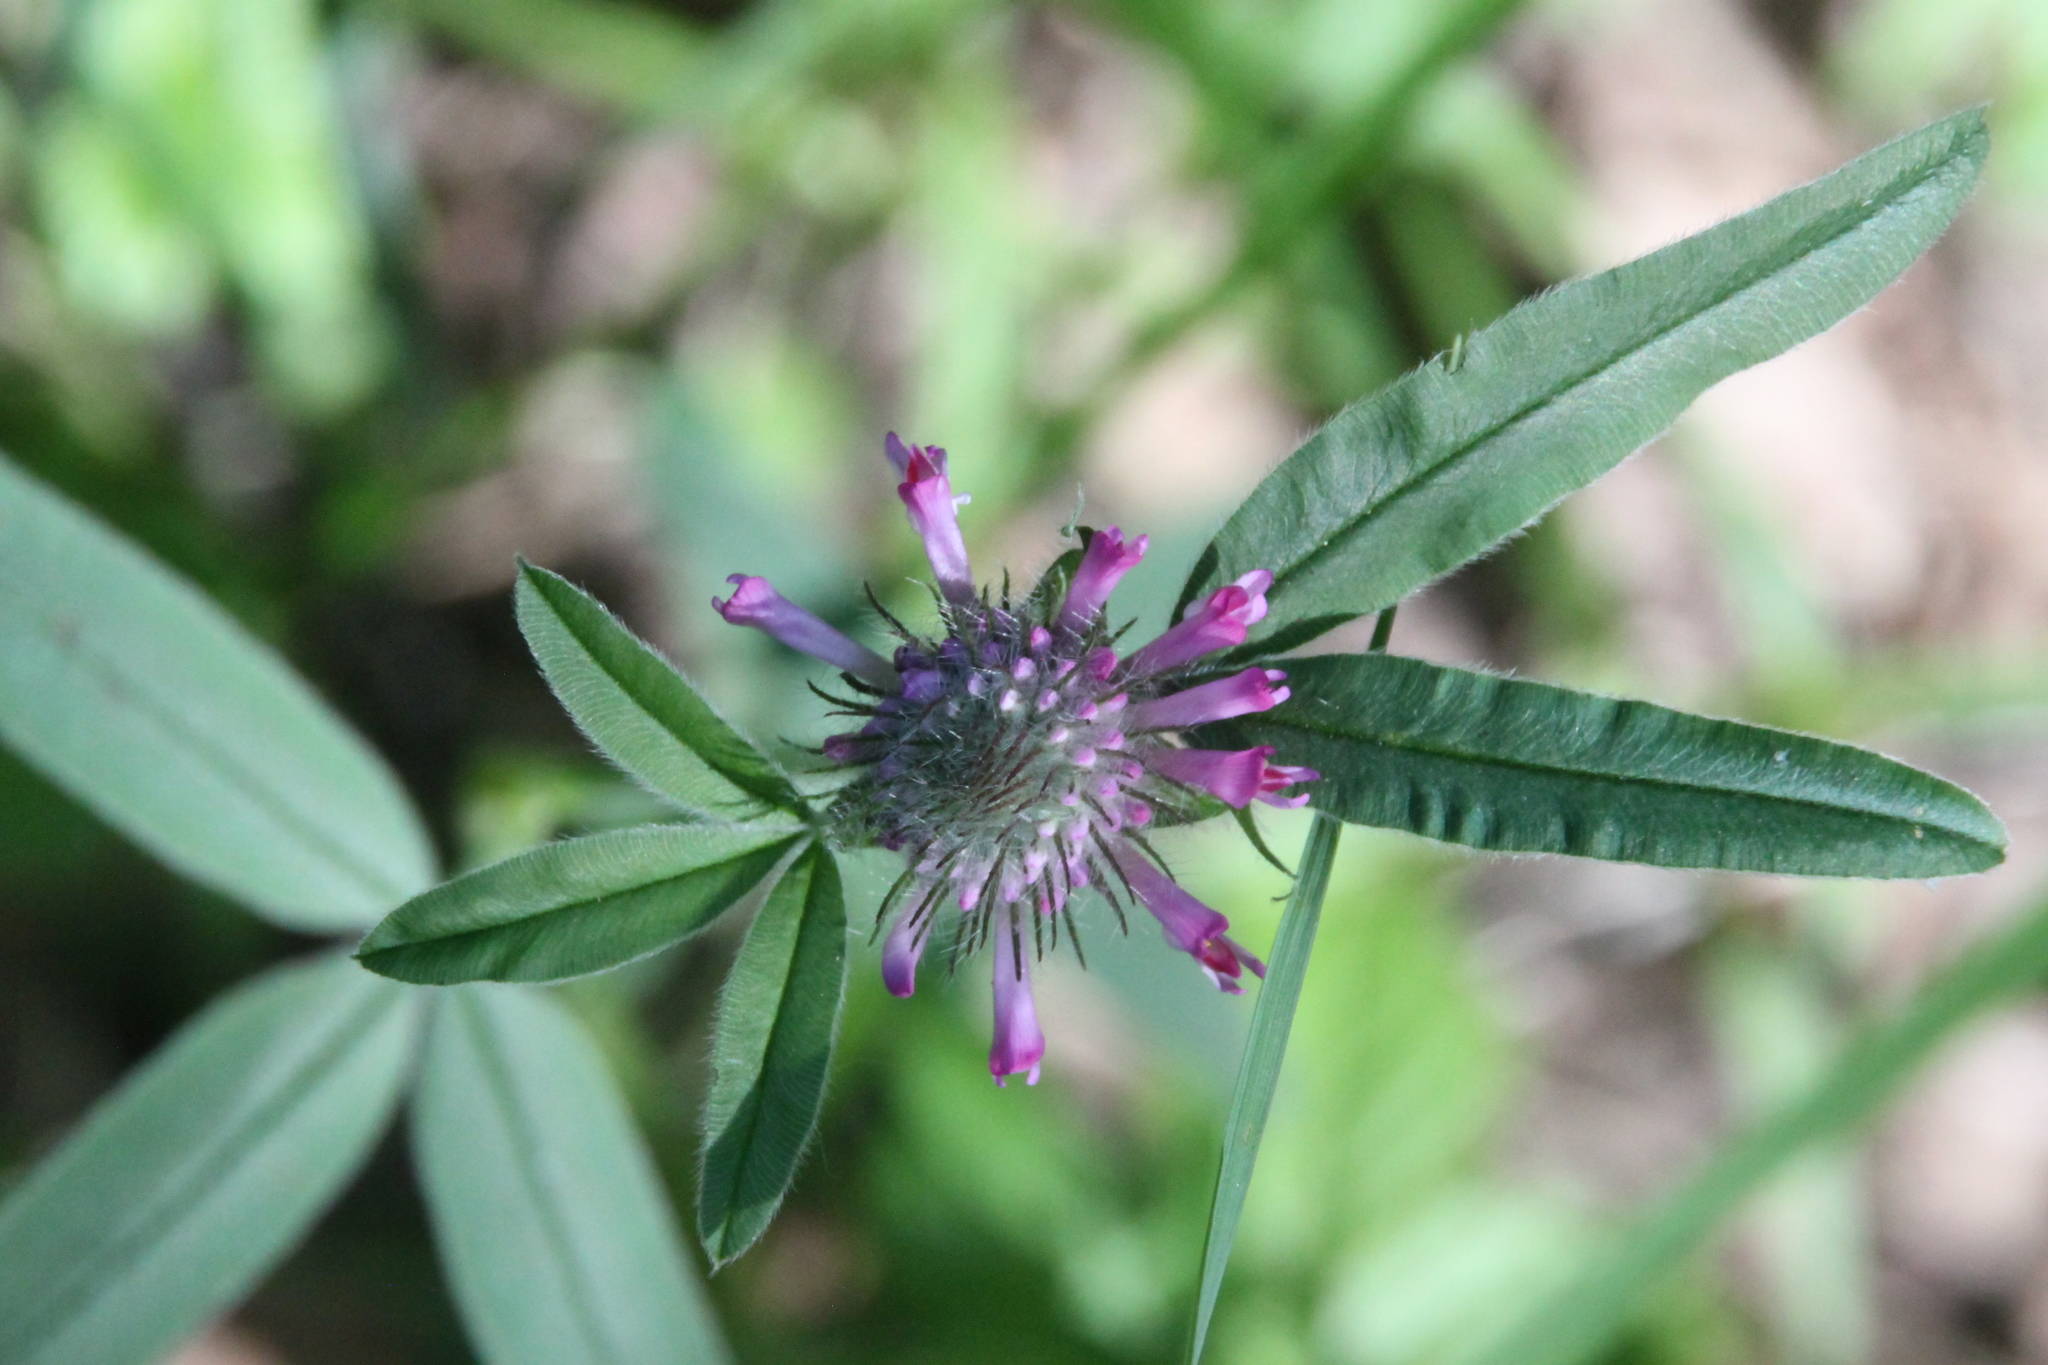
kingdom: Plantae
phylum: Tracheophyta
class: Magnoliopsida
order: Fabales
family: Fabaceae
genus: Trifolium
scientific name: Trifolium alpestre
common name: Owl-head clover
